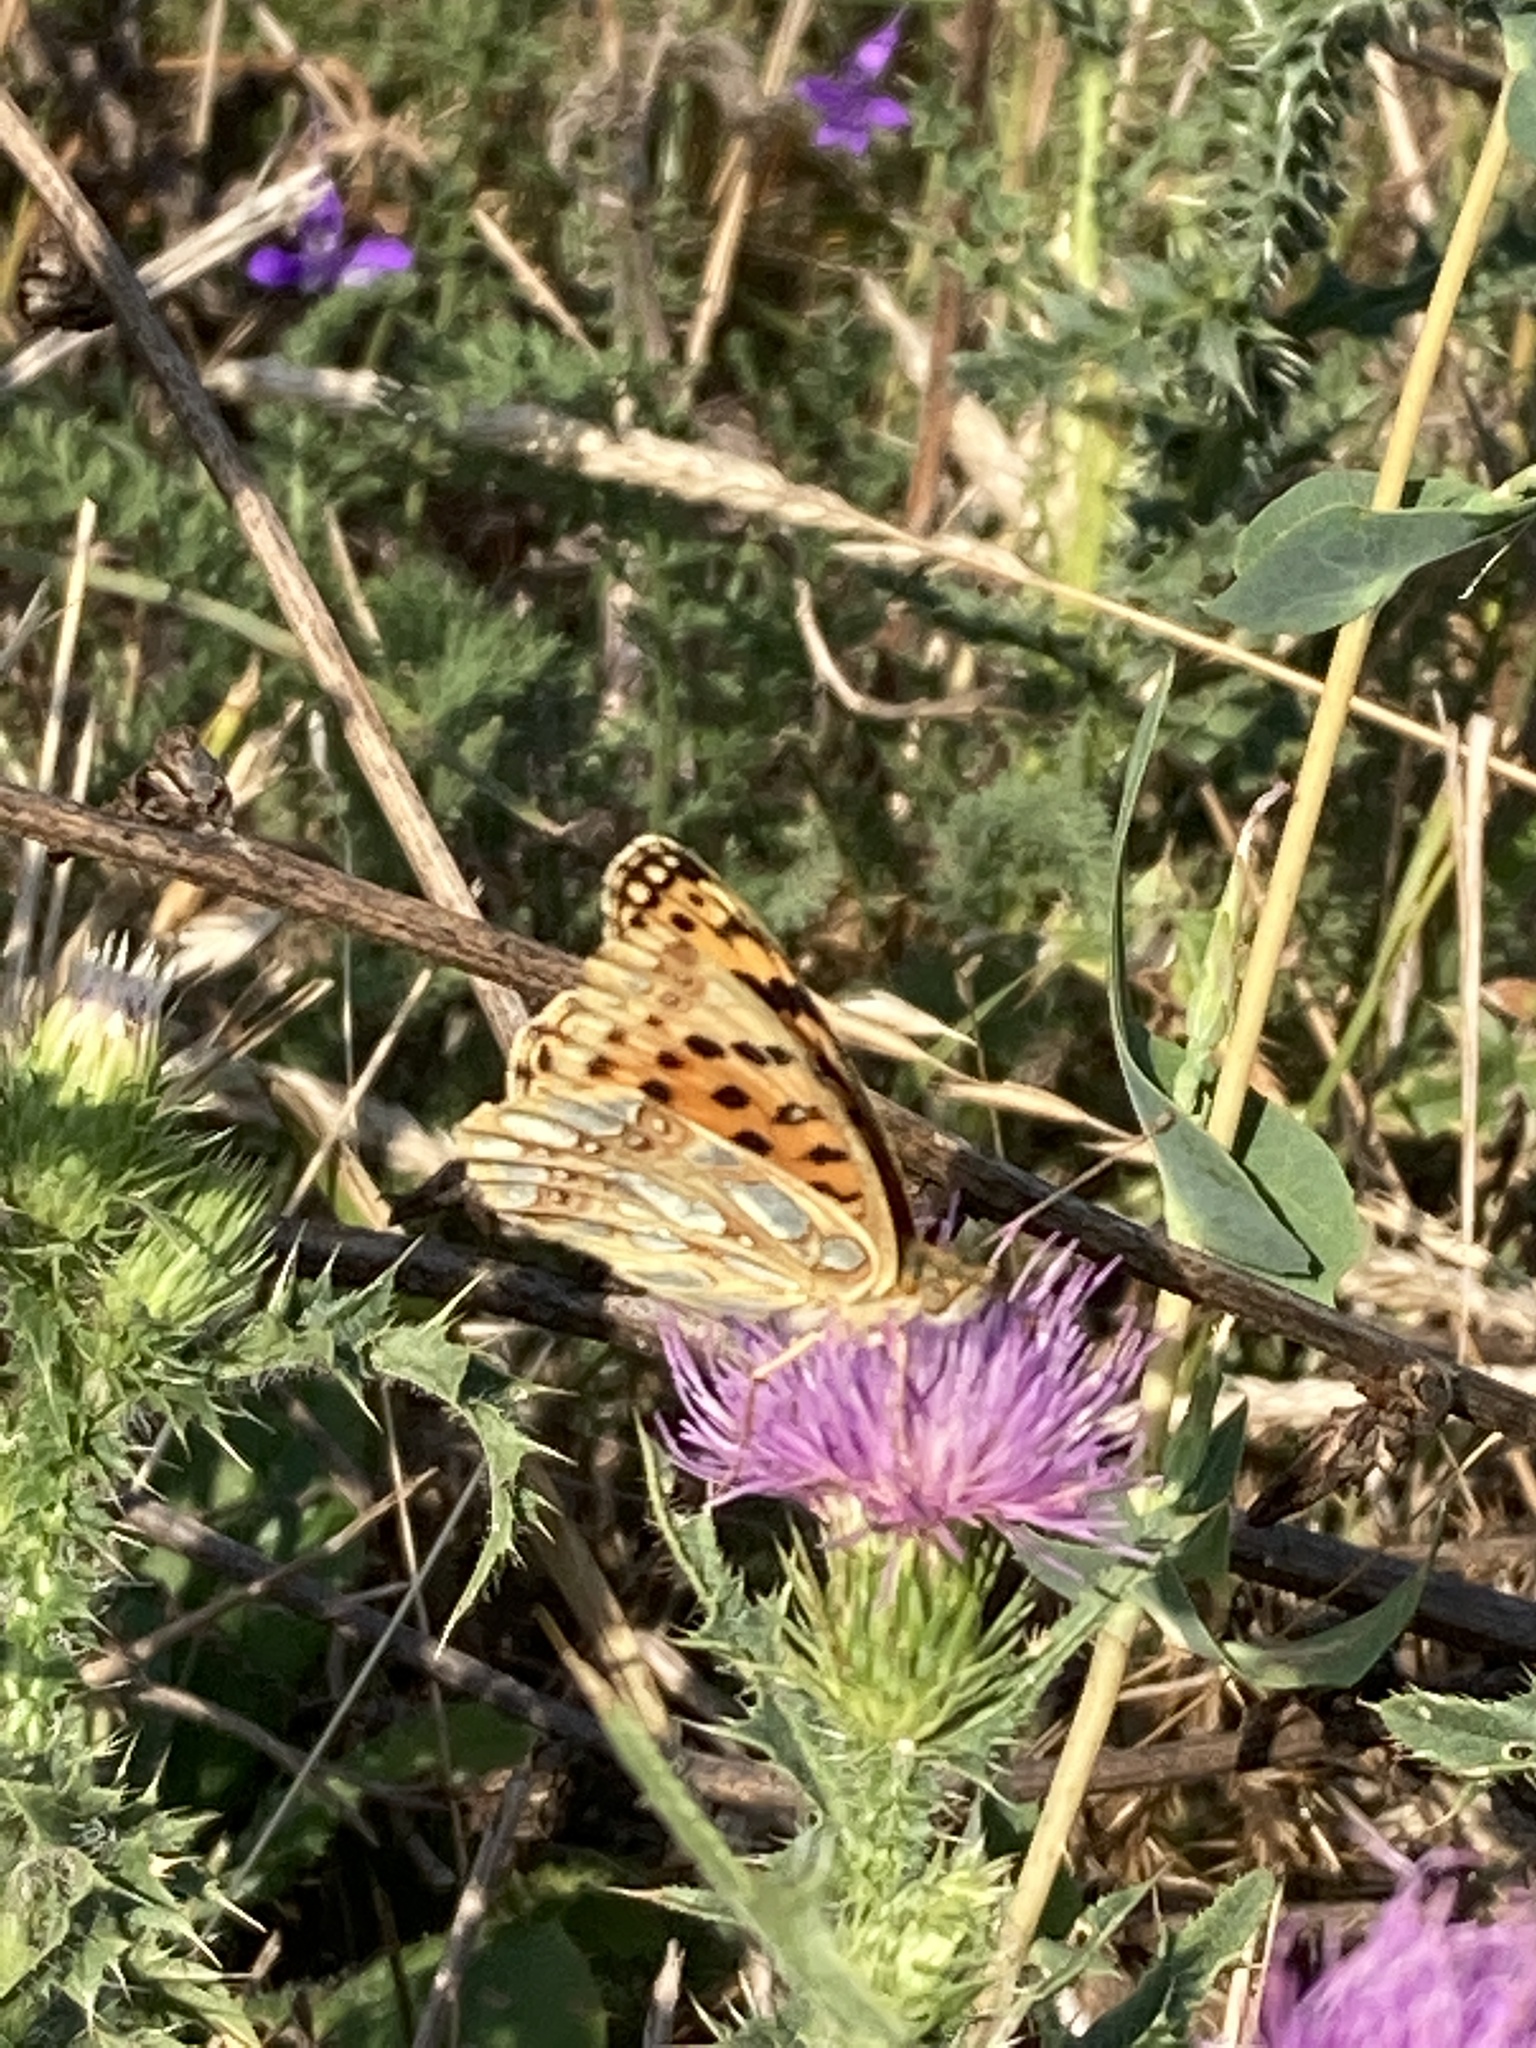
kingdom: Animalia
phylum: Arthropoda
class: Insecta
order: Lepidoptera
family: Nymphalidae
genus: Issoria
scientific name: Issoria lathonia
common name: Queen of spain fritillary
